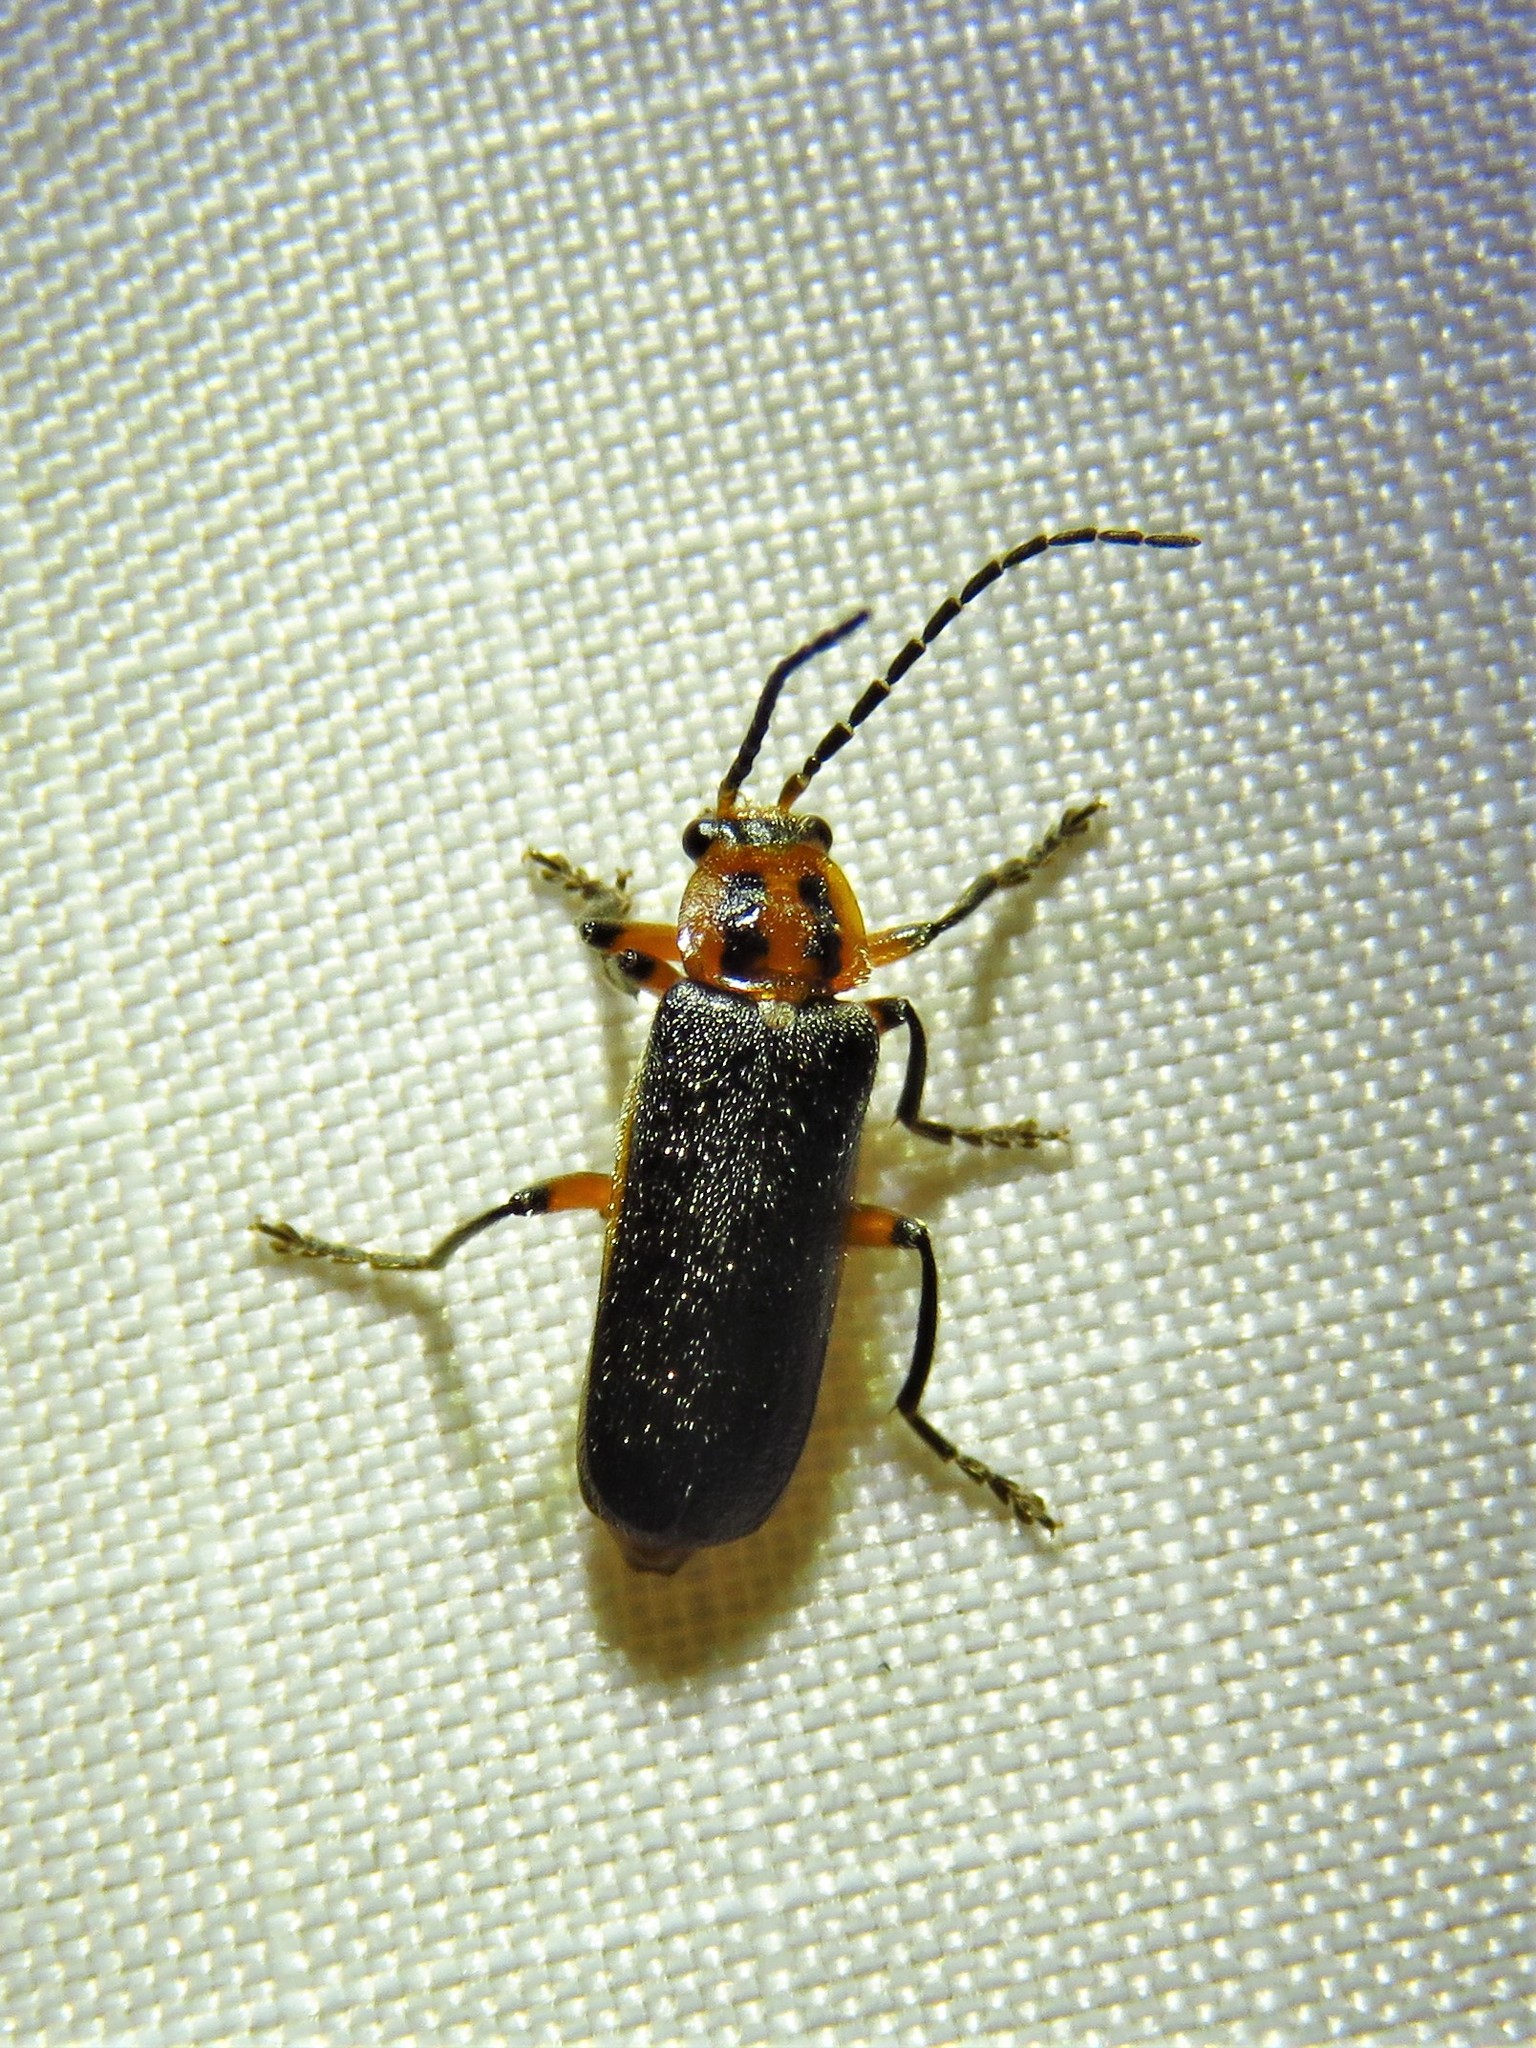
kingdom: Animalia
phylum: Arthropoda
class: Insecta
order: Coleoptera
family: Cantharidae
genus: Atalantycha
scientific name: Atalantycha bilineata
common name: Two-lined leatherwing
